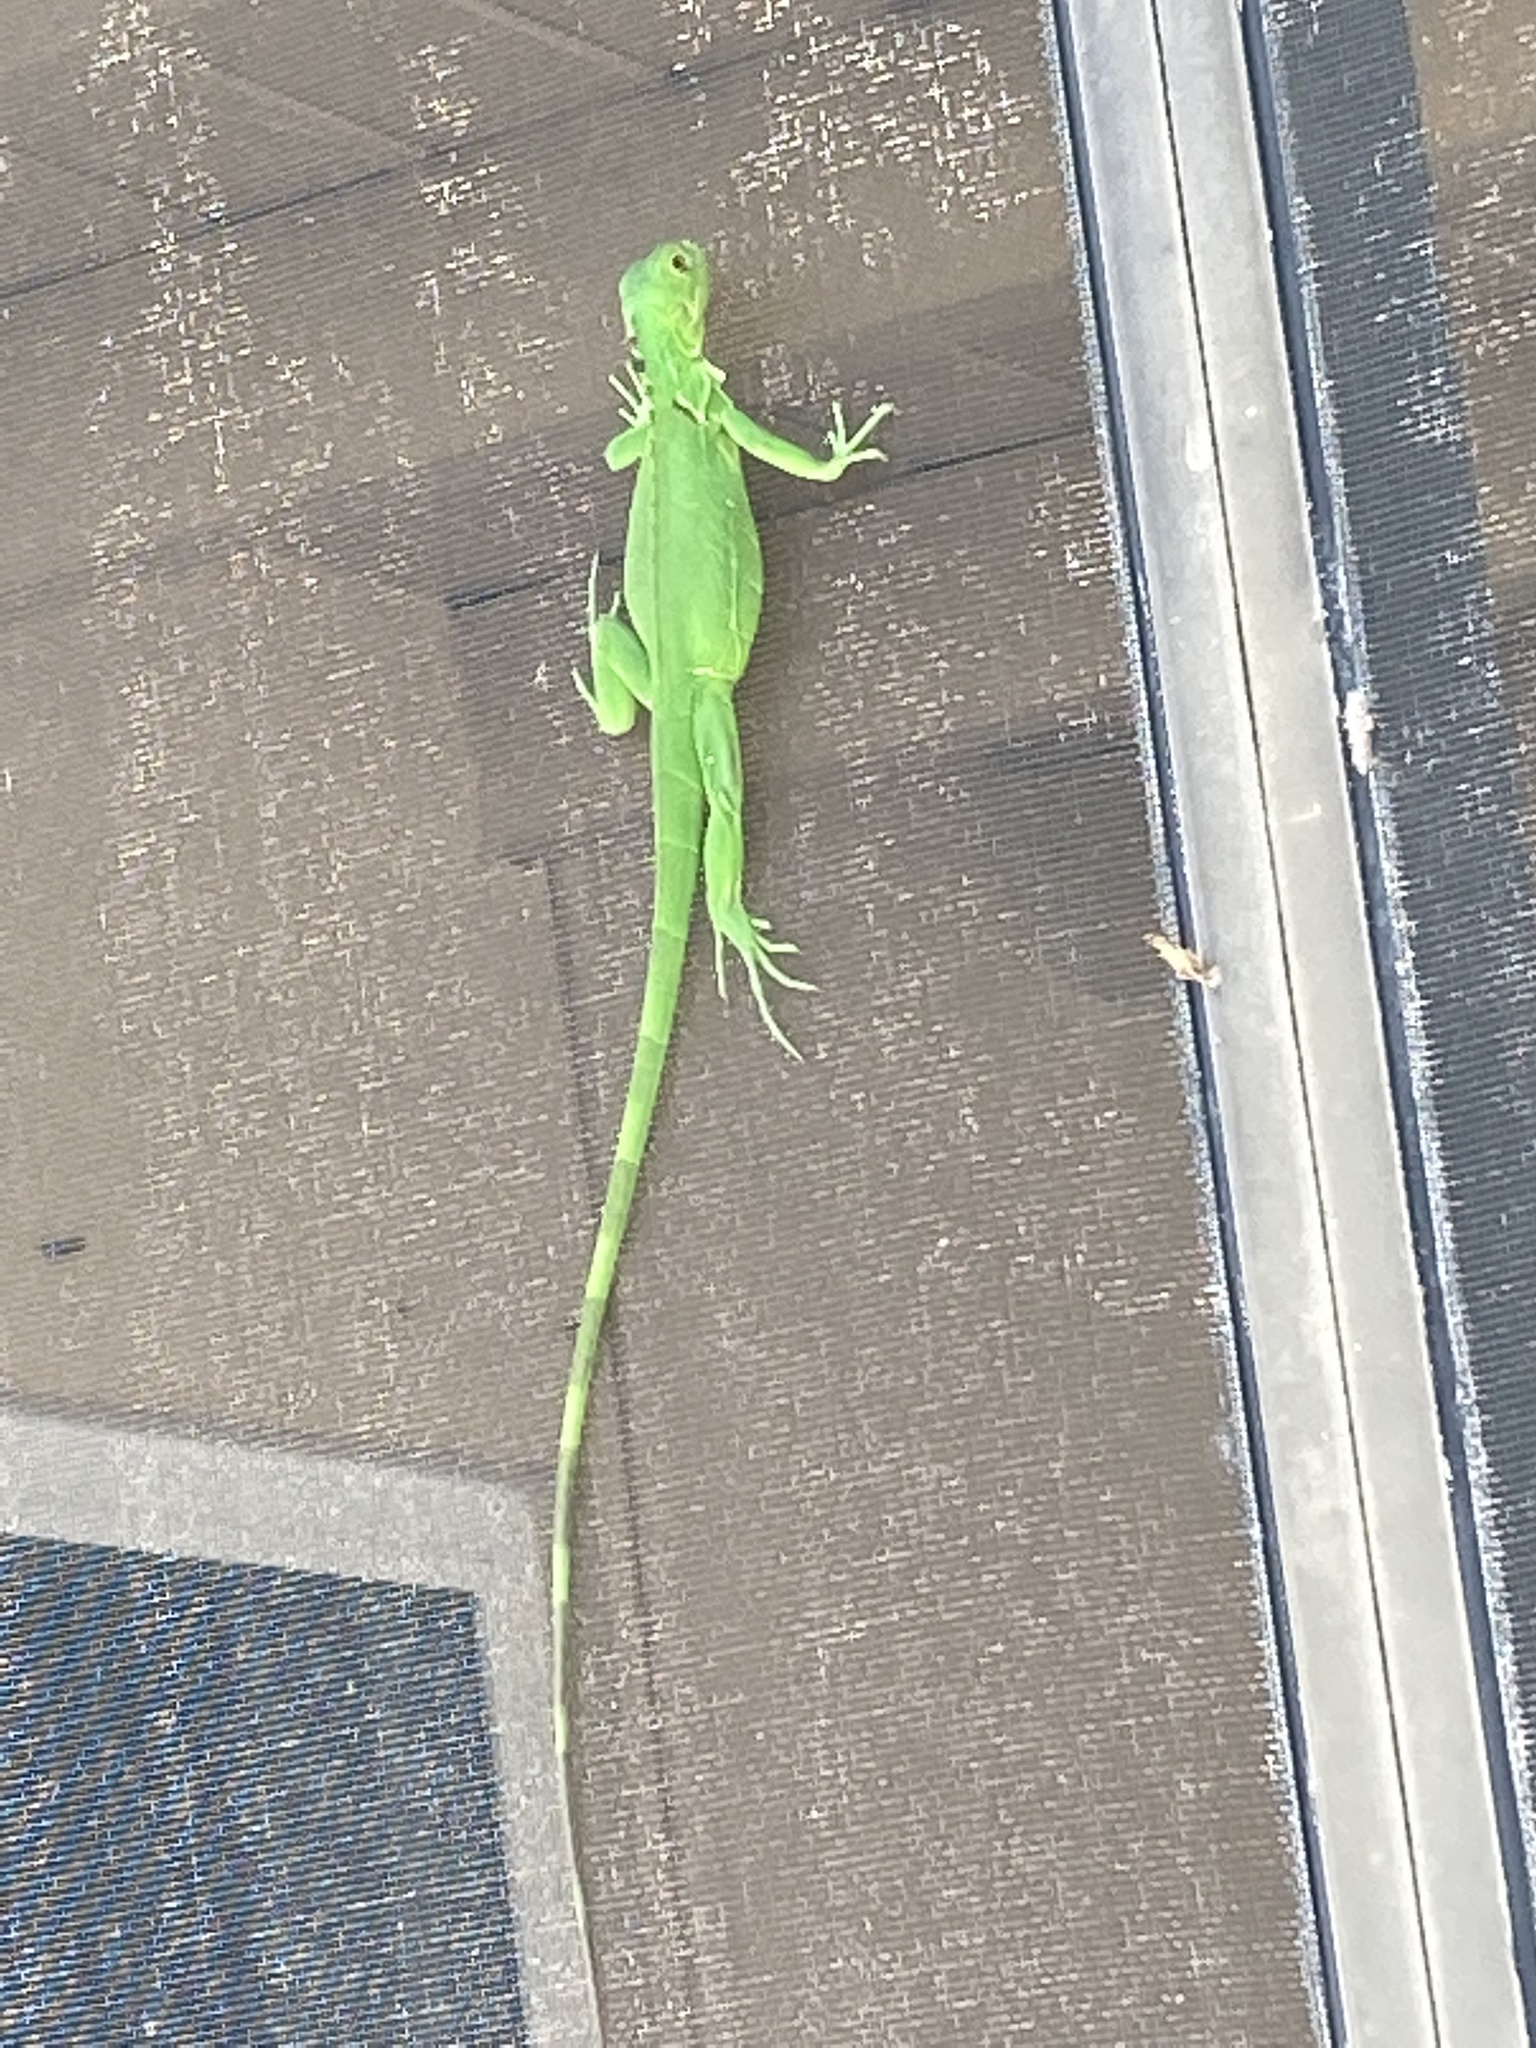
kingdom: Animalia
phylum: Chordata
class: Squamata
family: Iguanidae
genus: Iguana
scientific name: Iguana iguana
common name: Green iguana
